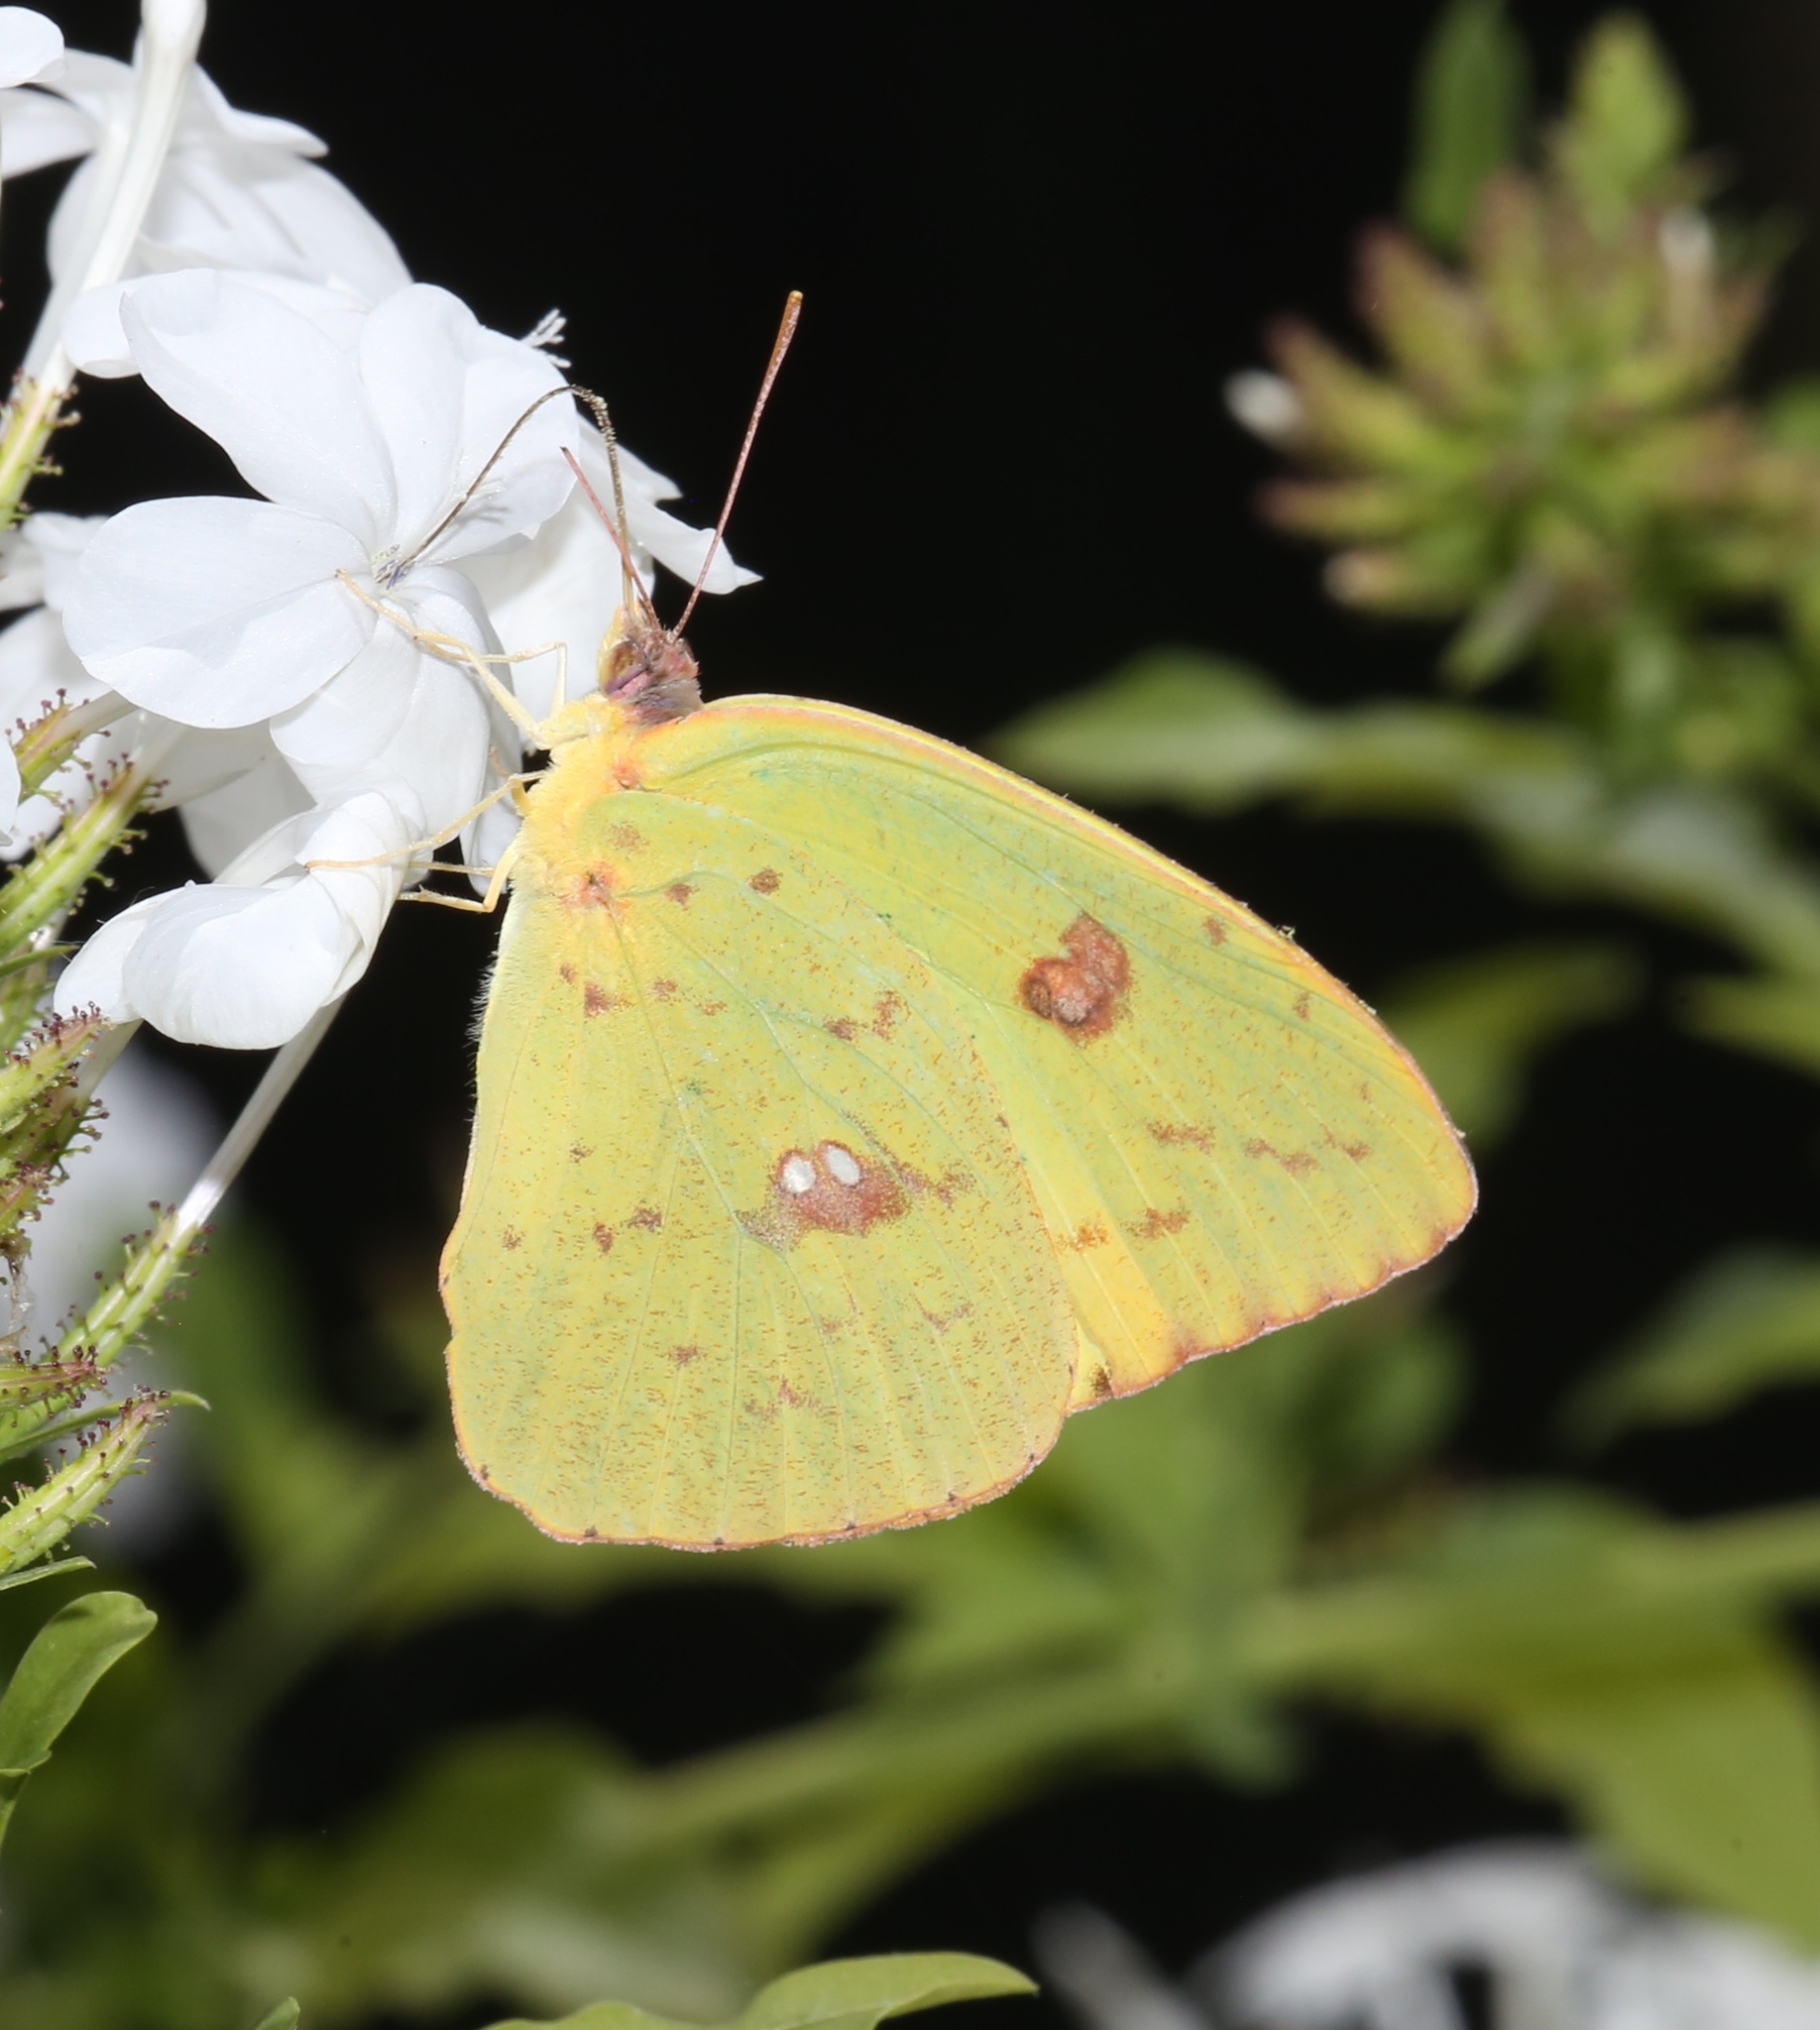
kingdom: Animalia
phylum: Arthropoda
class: Insecta
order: Lepidoptera
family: Pieridae
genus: Phoebis
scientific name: Phoebis sennae
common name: Cloudless sulphur
